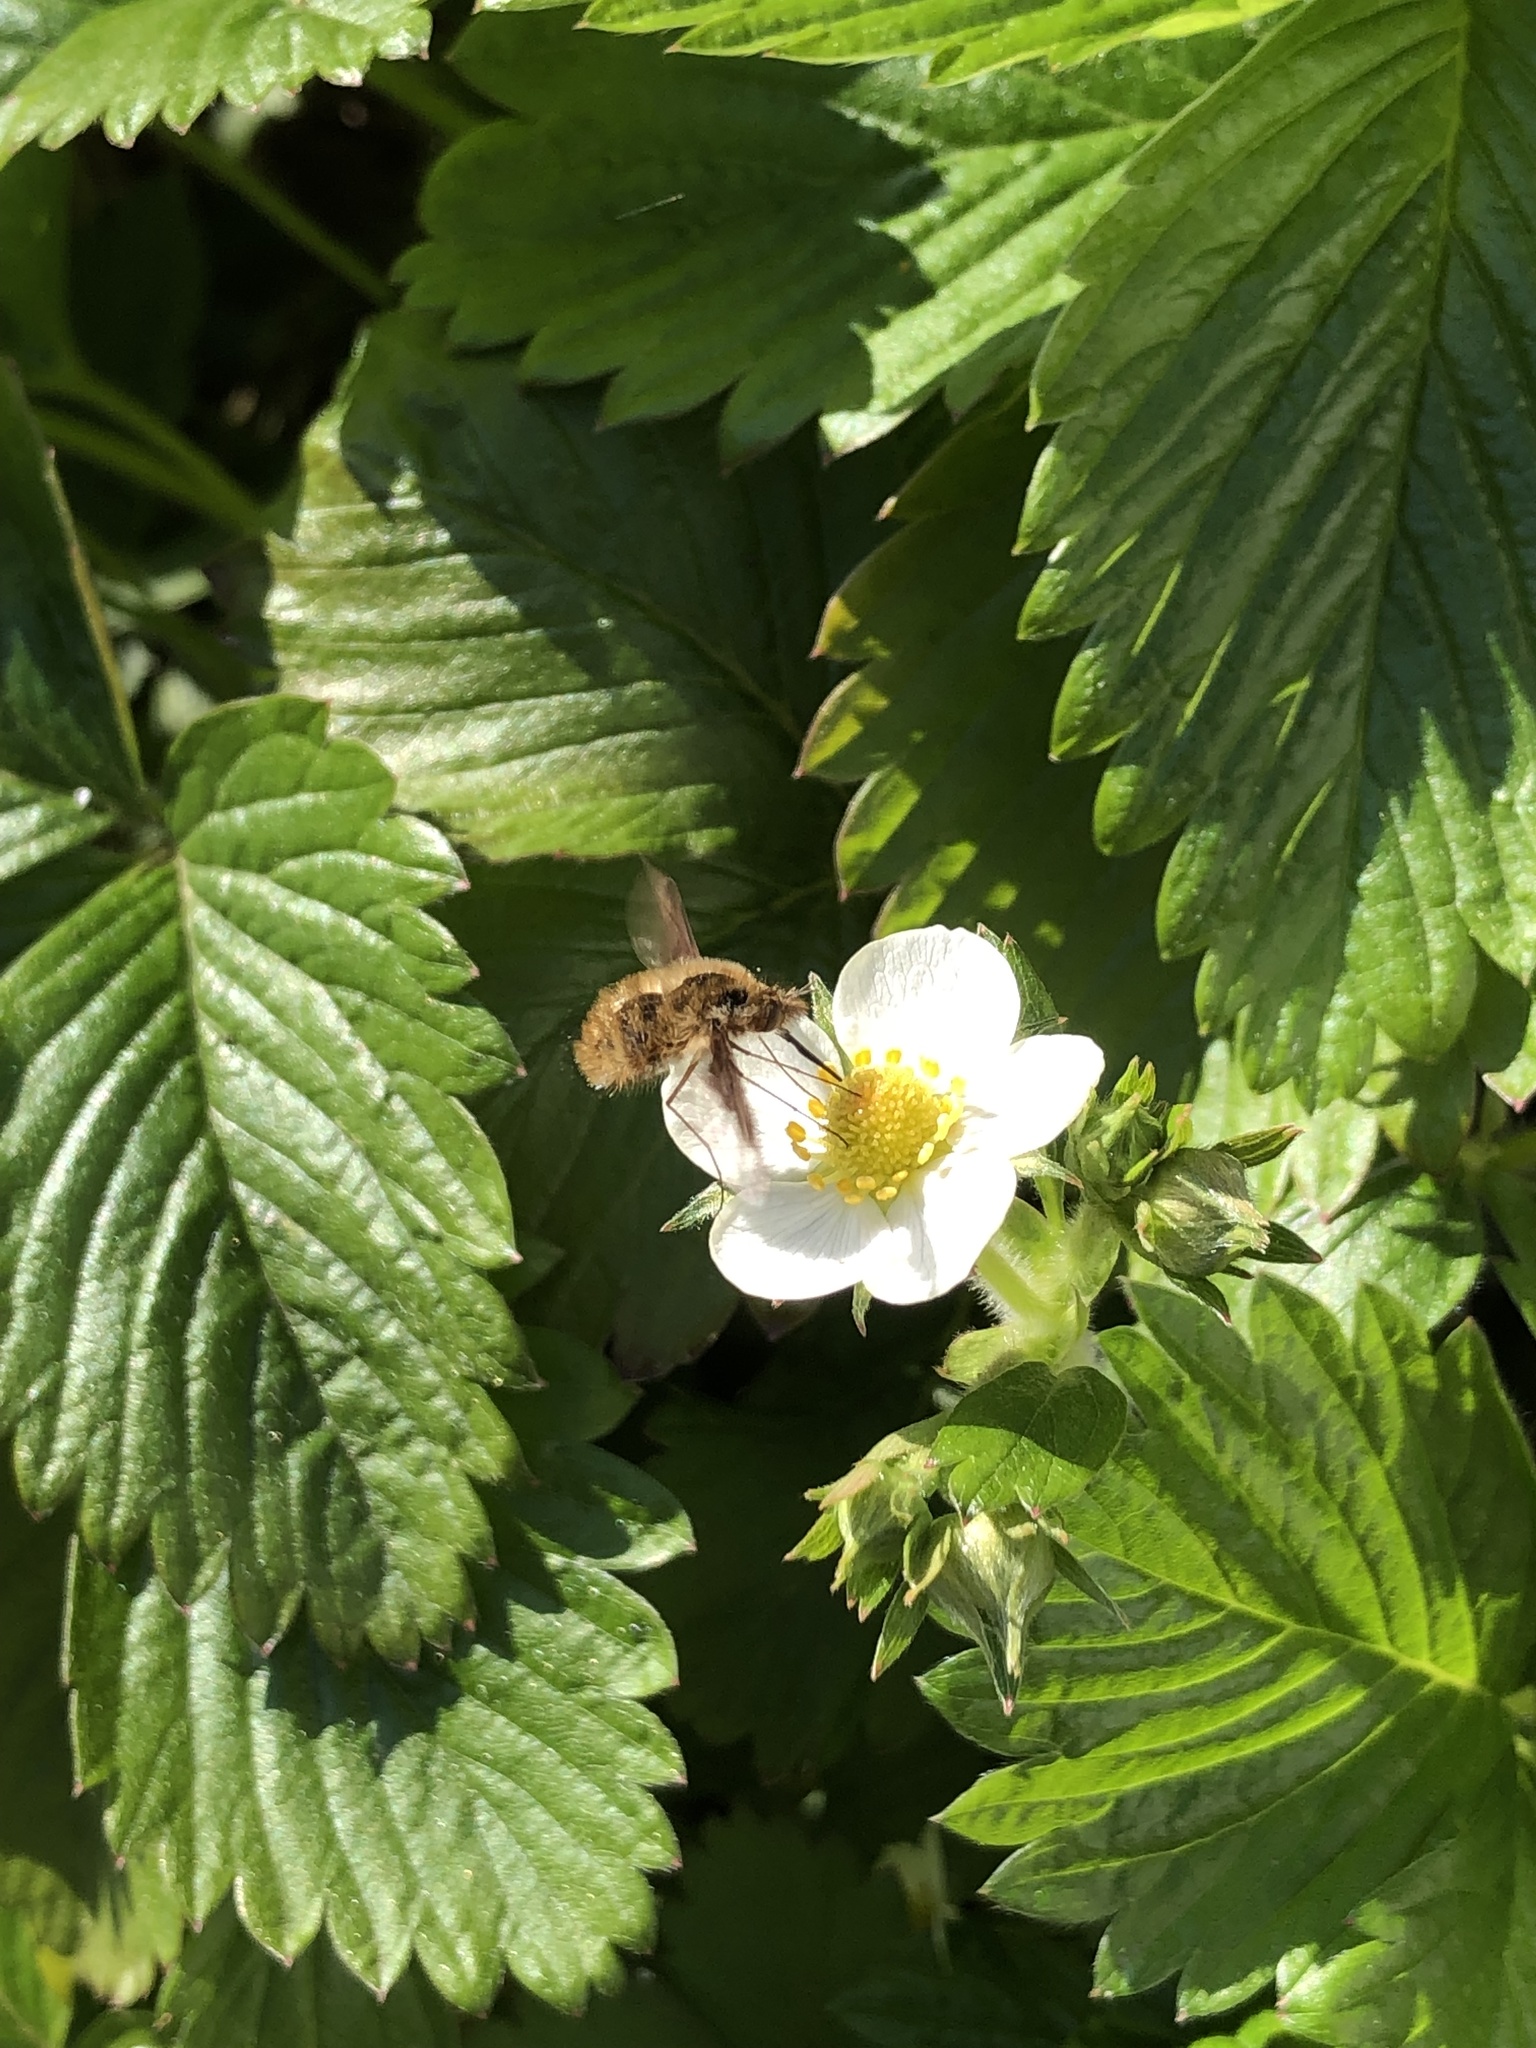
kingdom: Animalia
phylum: Arthropoda
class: Insecta
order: Diptera
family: Bombyliidae
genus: Bombylius
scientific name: Bombylius major
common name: Bee fly
